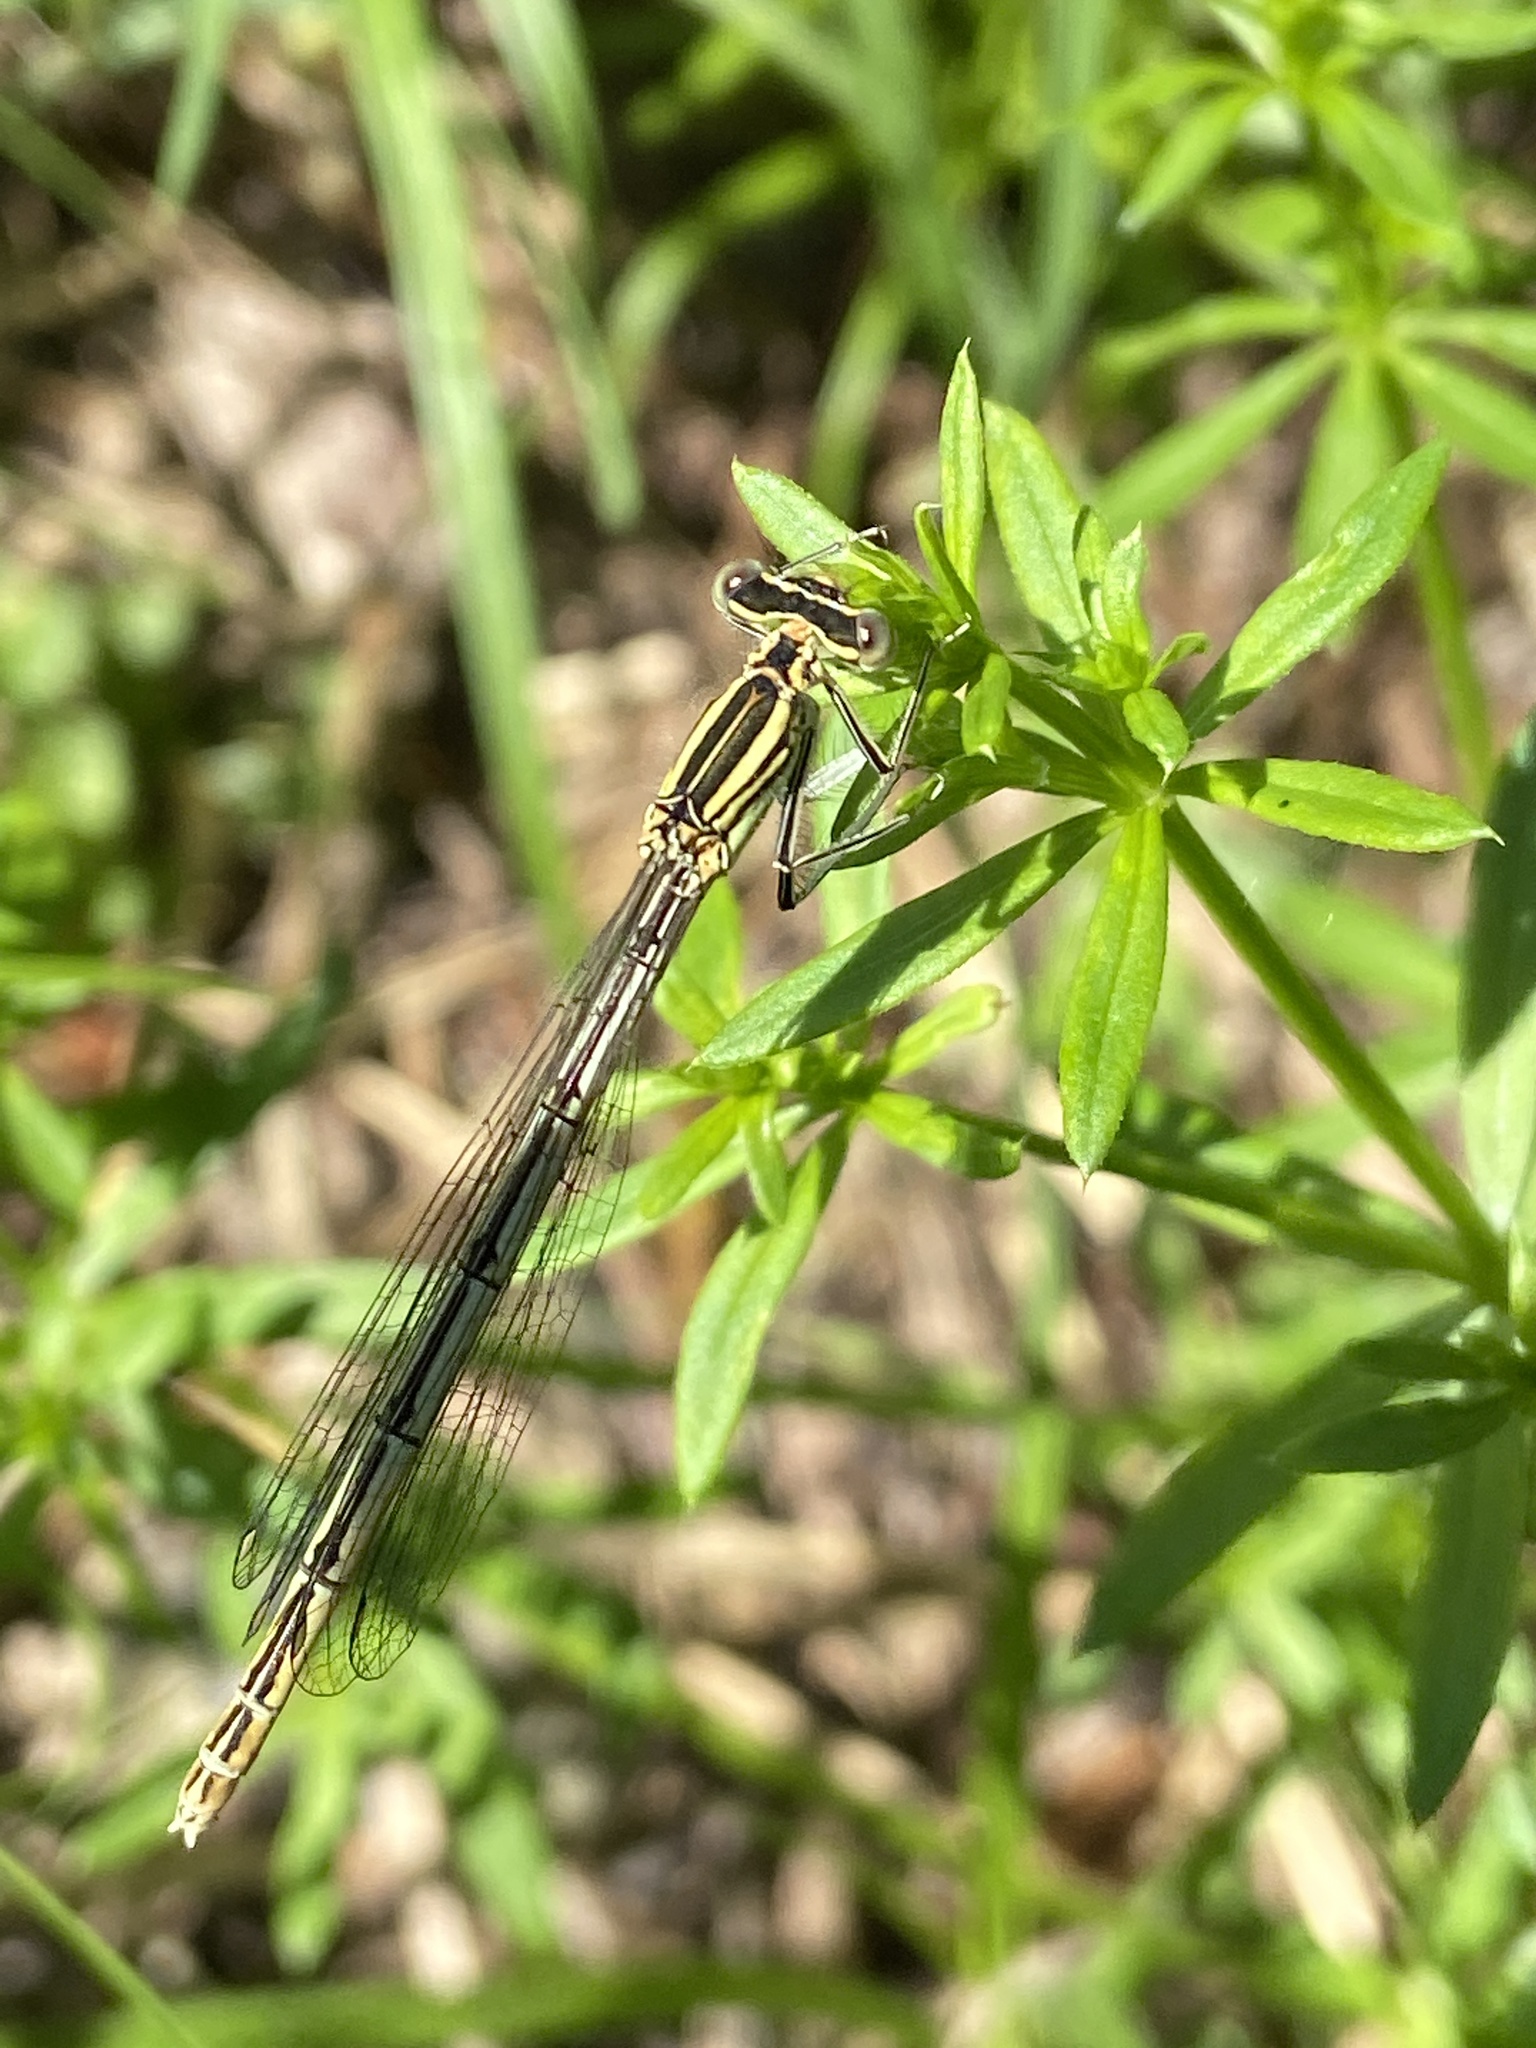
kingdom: Animalia
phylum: Arthropoda
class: Insecta
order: Odonata
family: Platycnemididae
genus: Platycnemis
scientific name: Platycnemis pennipes
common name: White-legged damselfly
